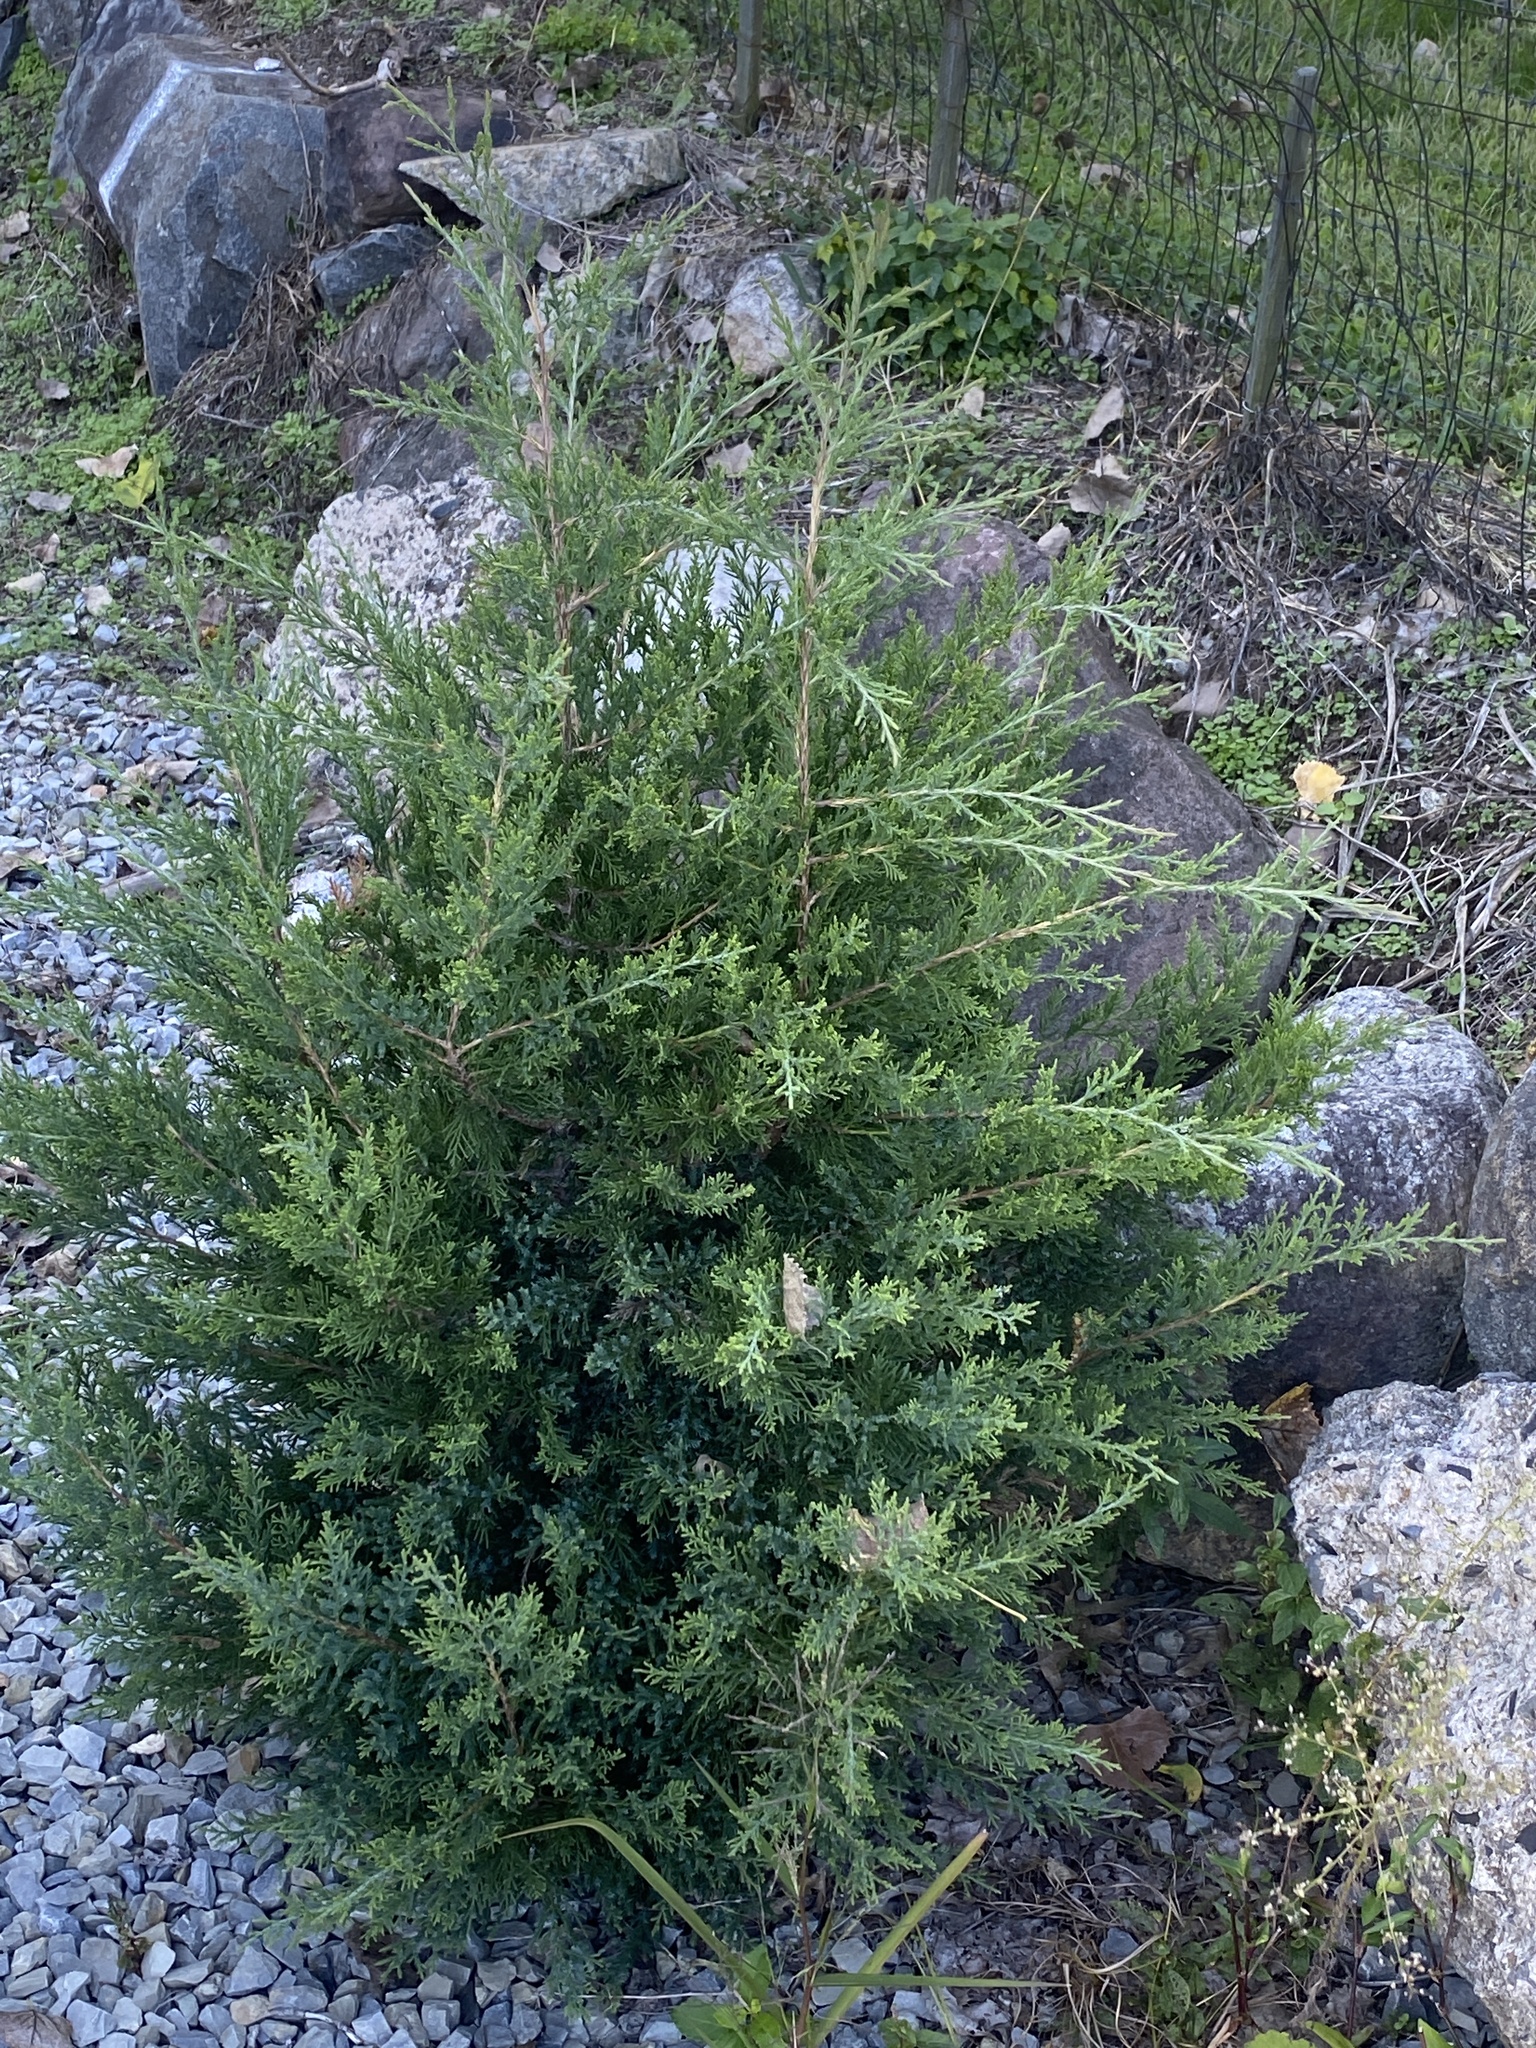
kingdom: Plantae
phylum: Tracheophyta
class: Pinopsida
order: Pinales
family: Cupressaceae
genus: Juniperus
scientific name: Juniperus virginiana
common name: Red juniper
